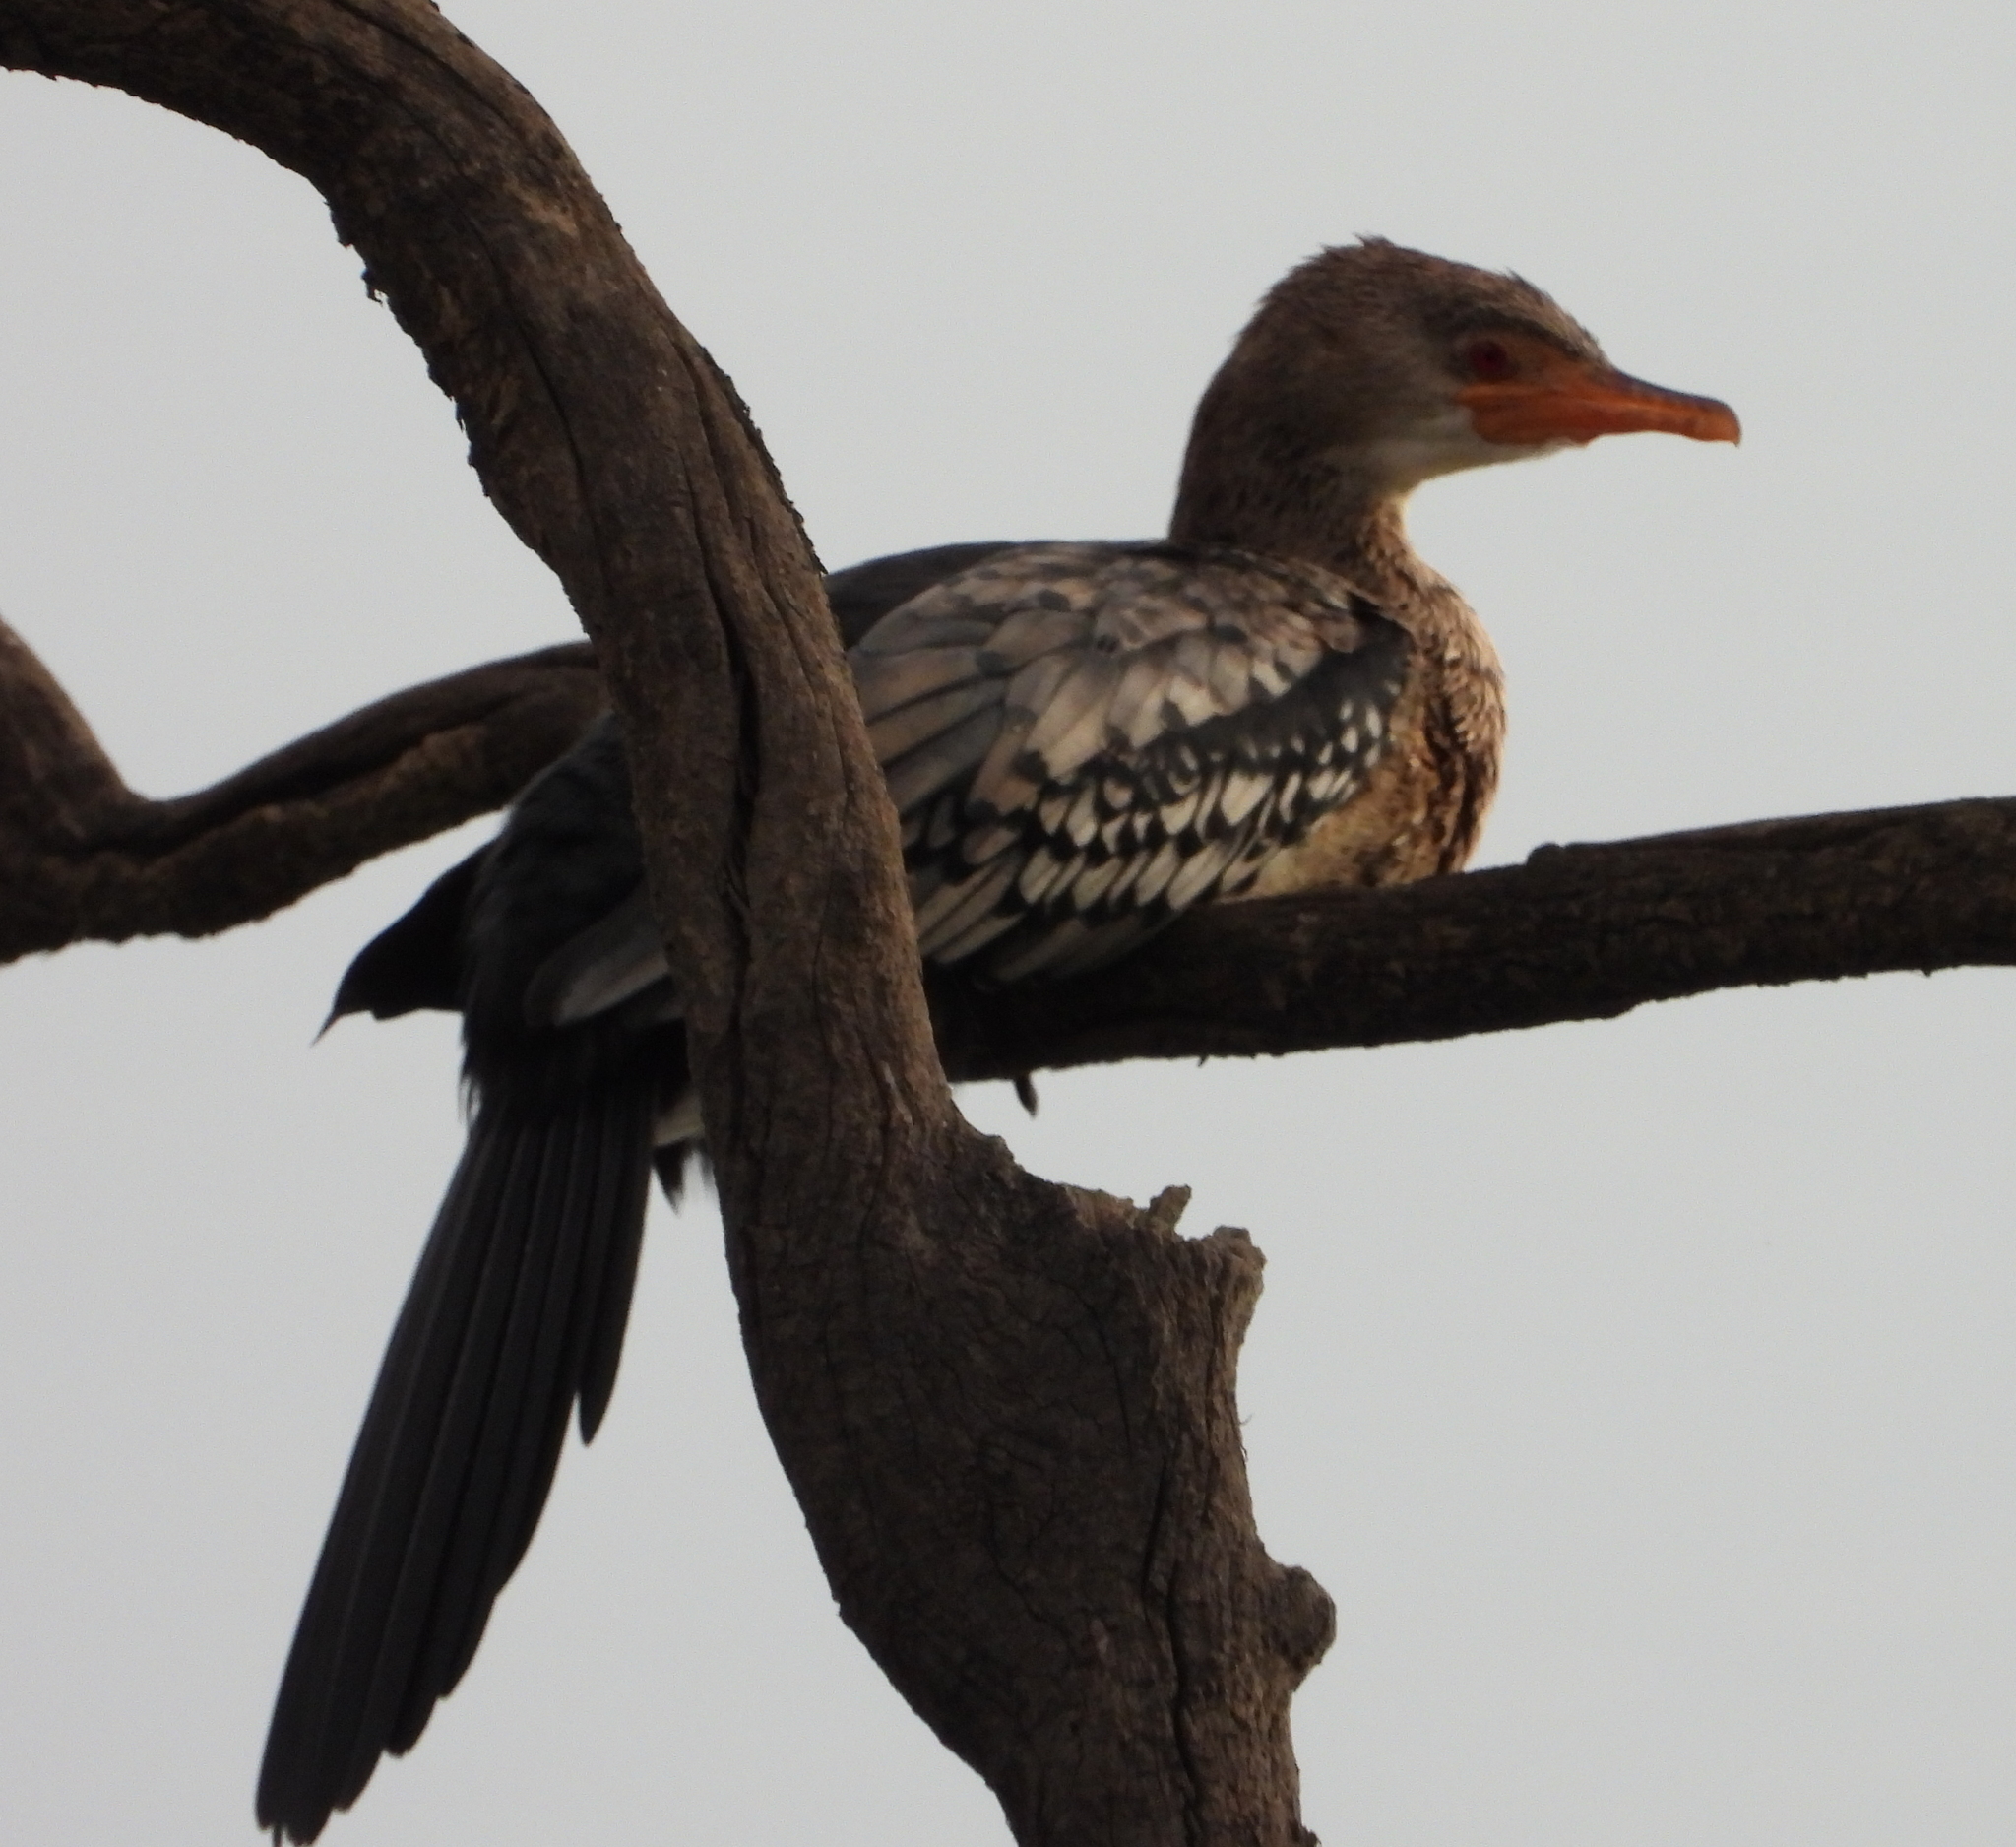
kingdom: Animalia
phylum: Chordata
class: Aves
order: Suliformes
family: Phalacrocoracidae
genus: Microcarbo
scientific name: Microcarbo africanus
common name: Long-tailed cormorant
